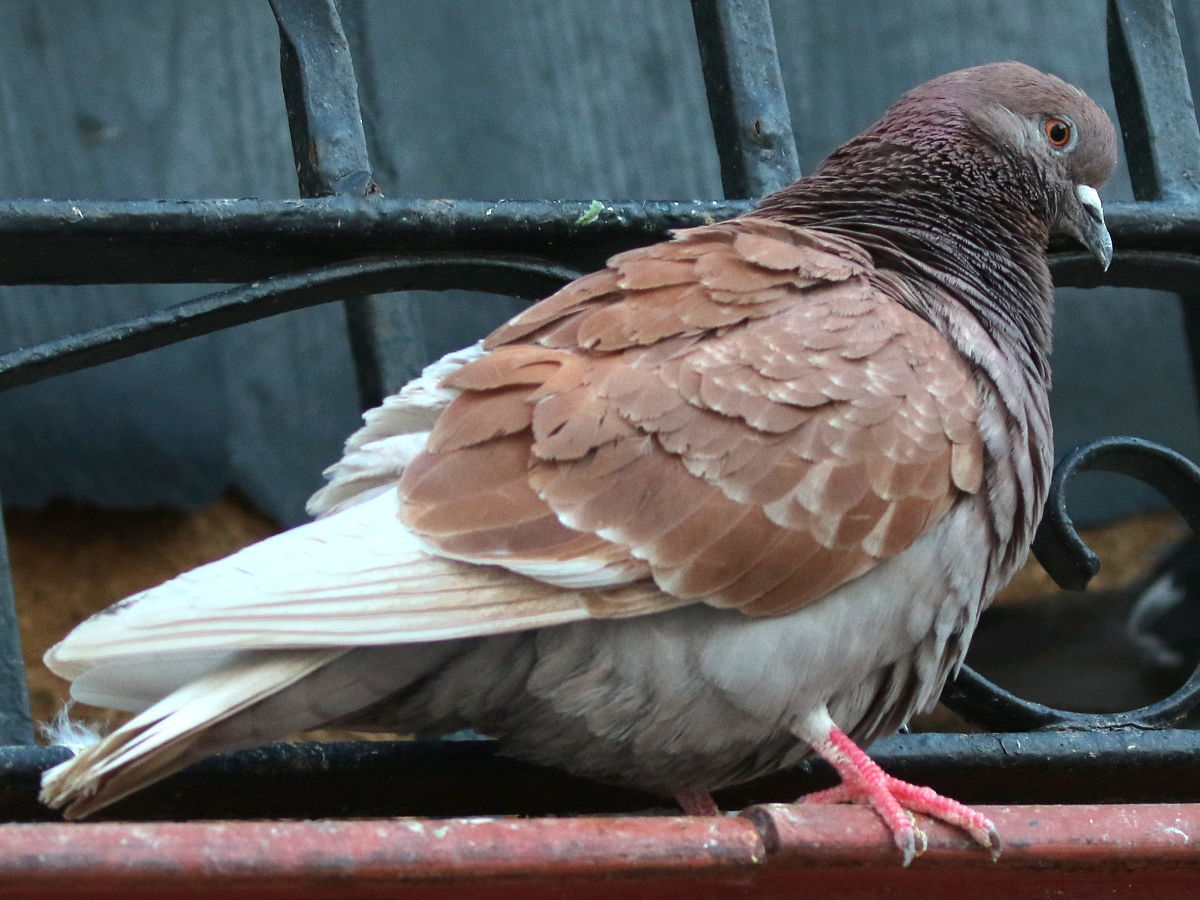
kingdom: Animalia
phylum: Chordata
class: Aves
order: Columbiformes
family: Columbidae
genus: Columba
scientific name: Columba livia
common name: Rock pigeon
